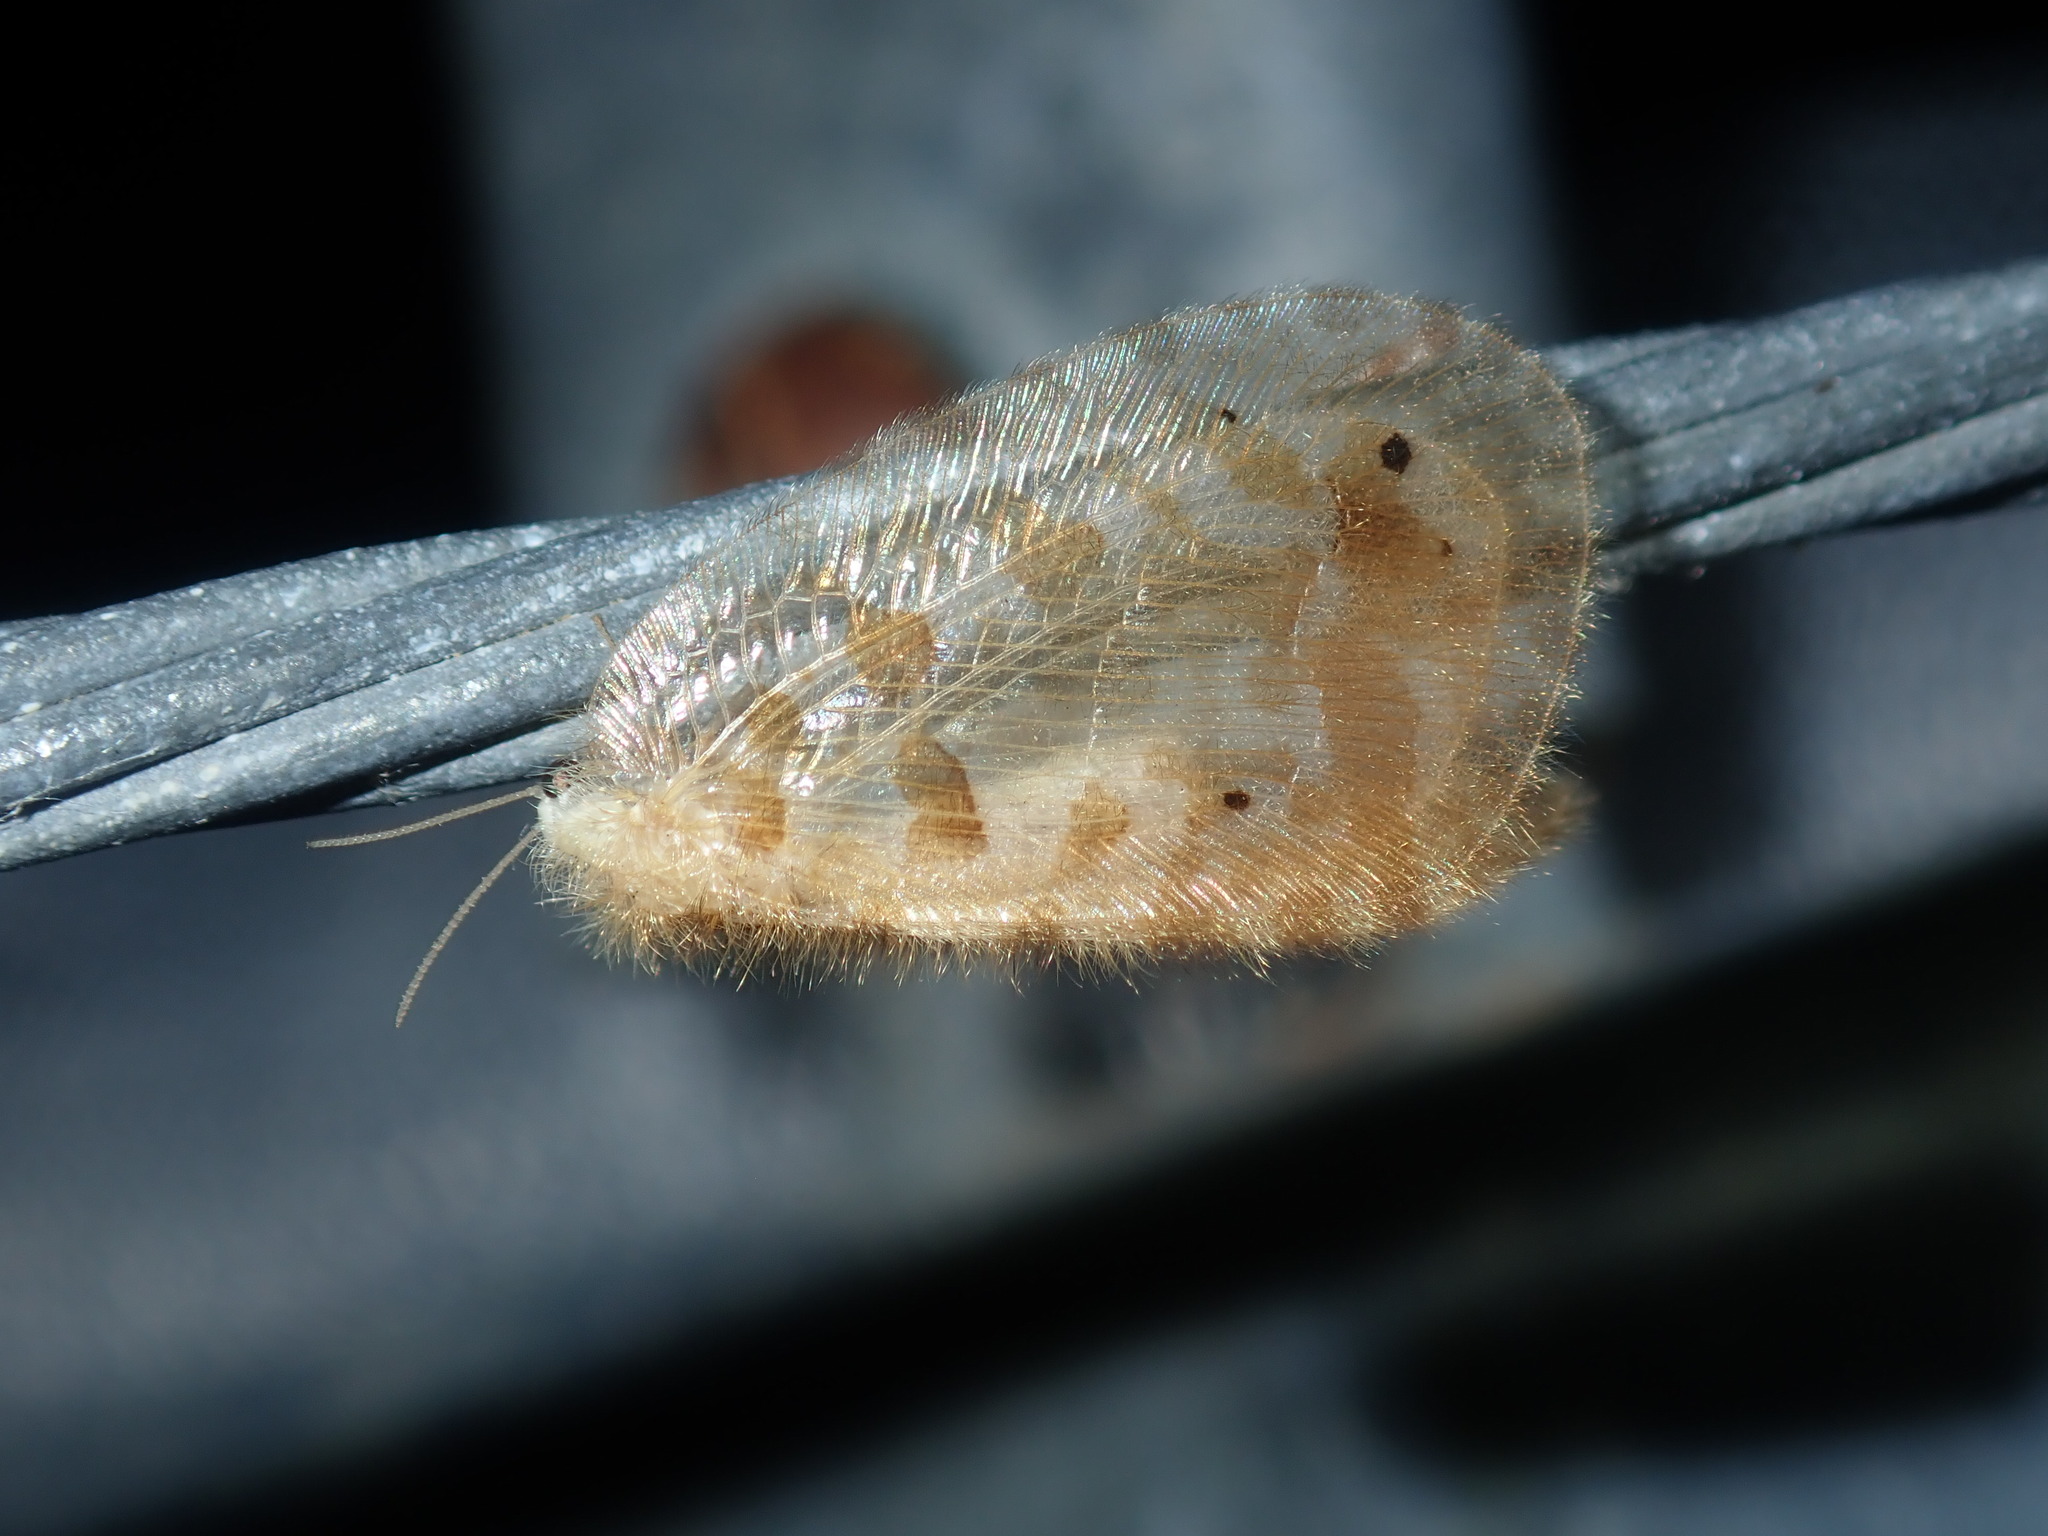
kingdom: Animalia
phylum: Arthropoda
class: Insecta
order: Neuroptera
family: Psychopsidae
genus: Psychopsis
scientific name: Psychopsis insolens
